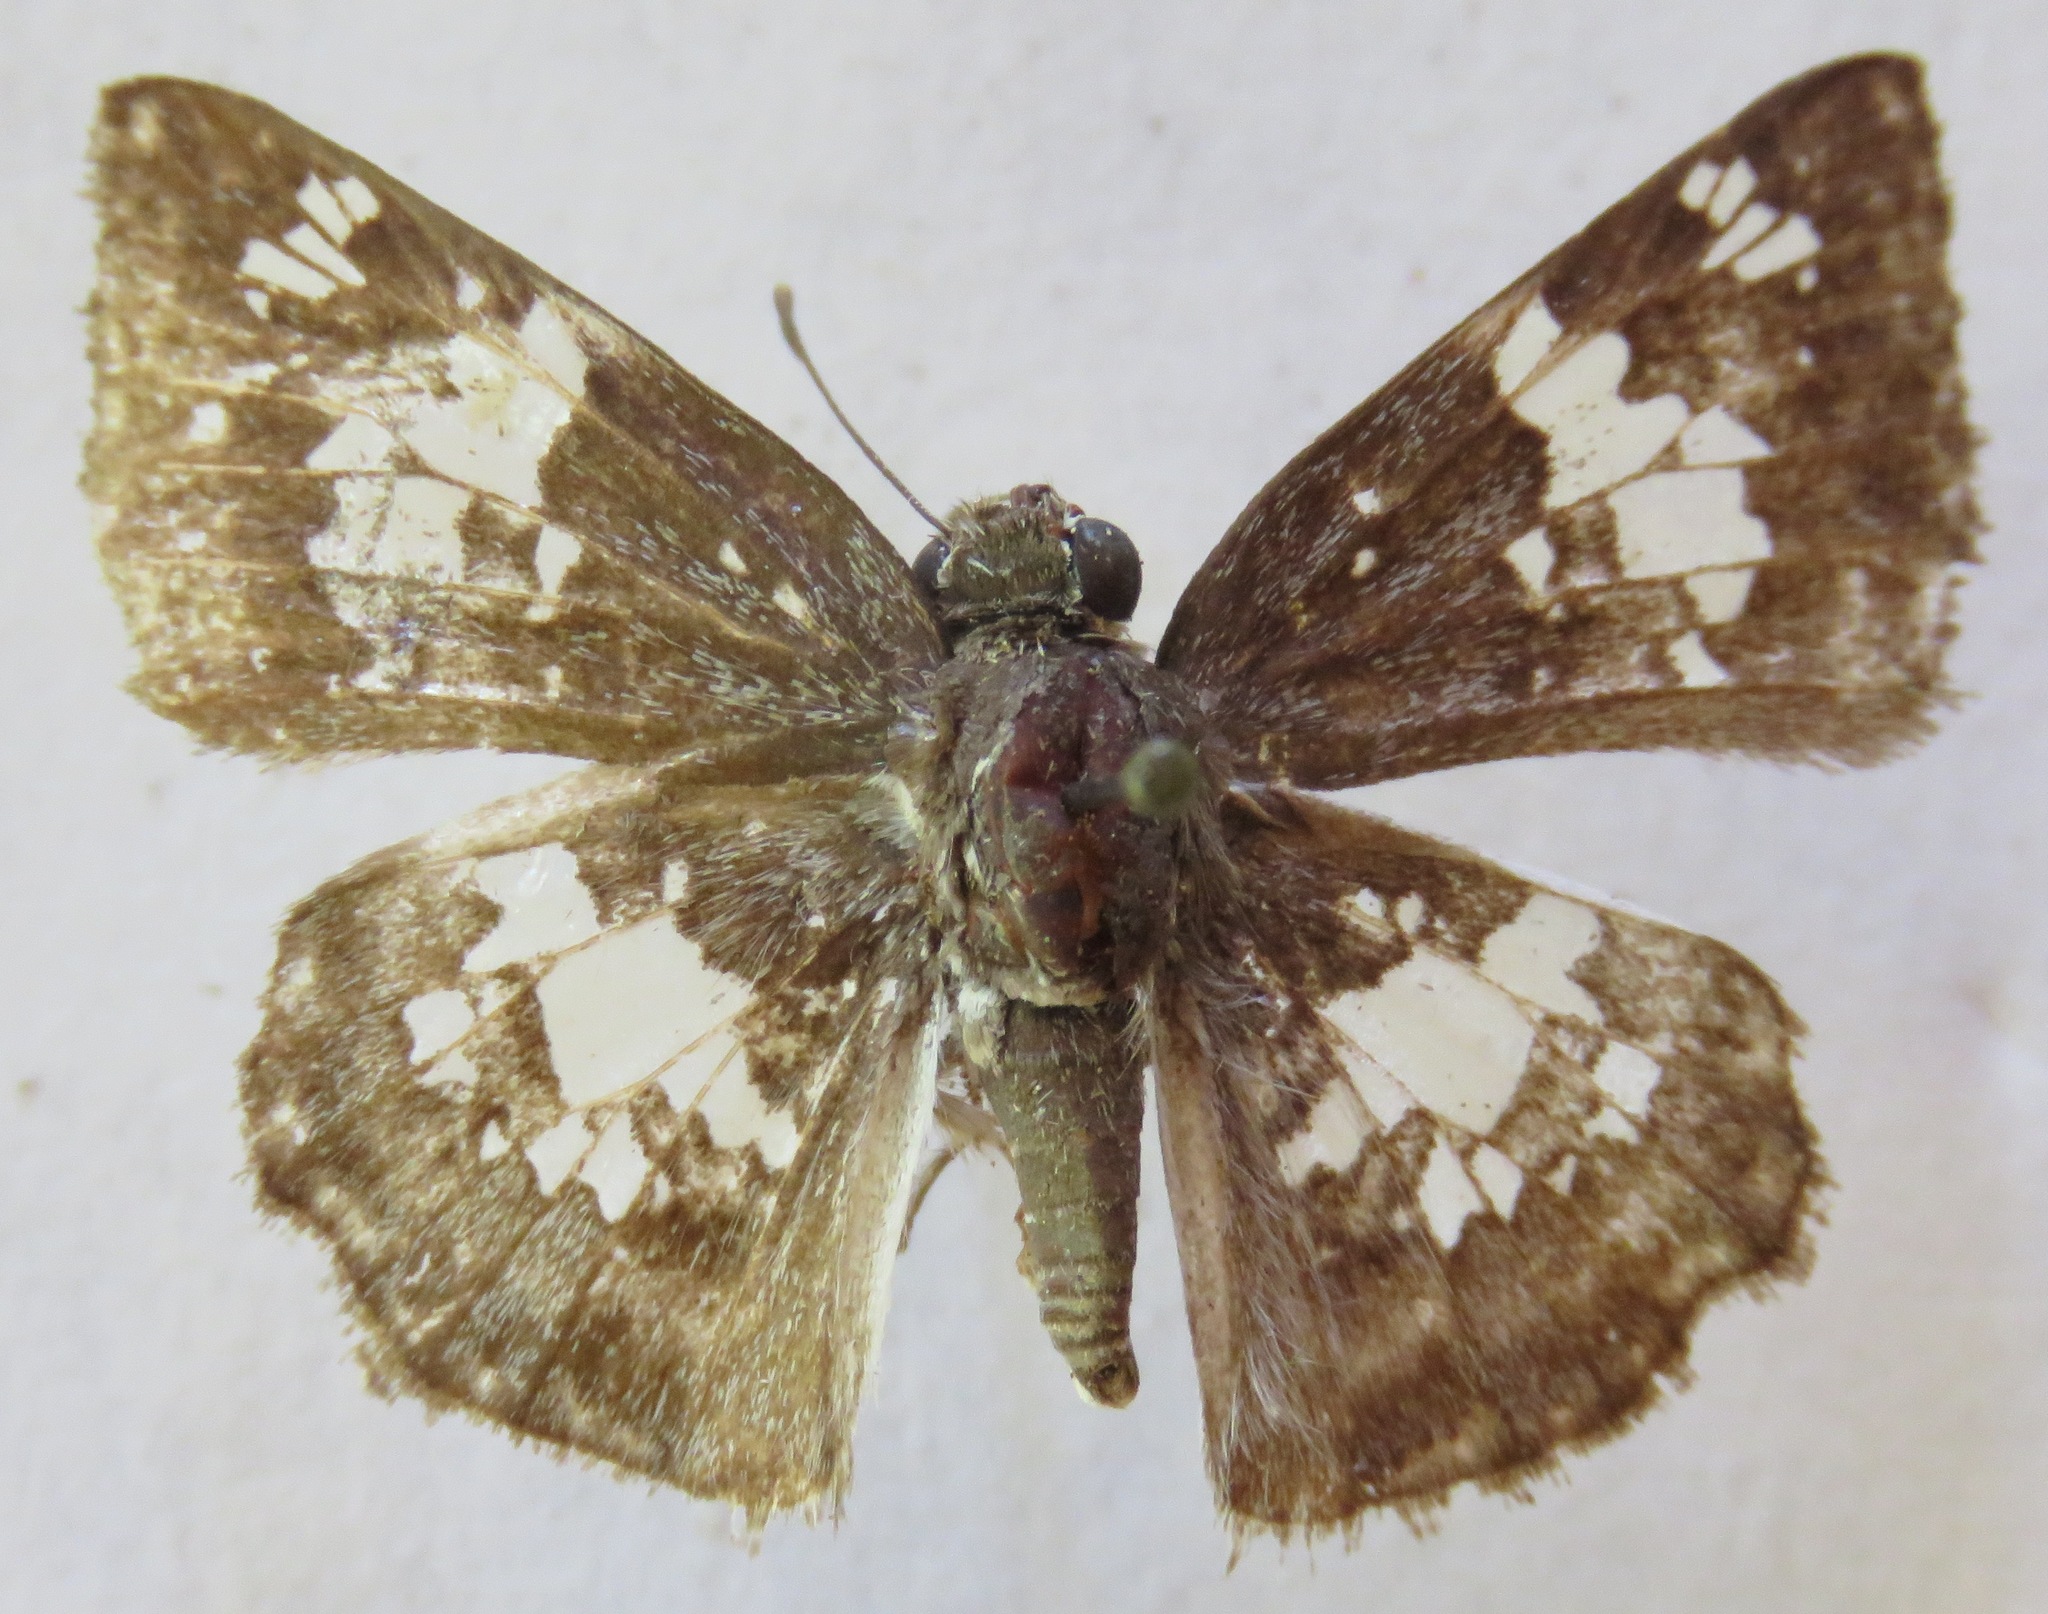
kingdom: Animalia
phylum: Arthropoda
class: Insecta
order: Lepidoptera
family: Hesperiidae
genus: Xenophanes
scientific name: Xenophanes tryxus
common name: Glassy-winged skipper
